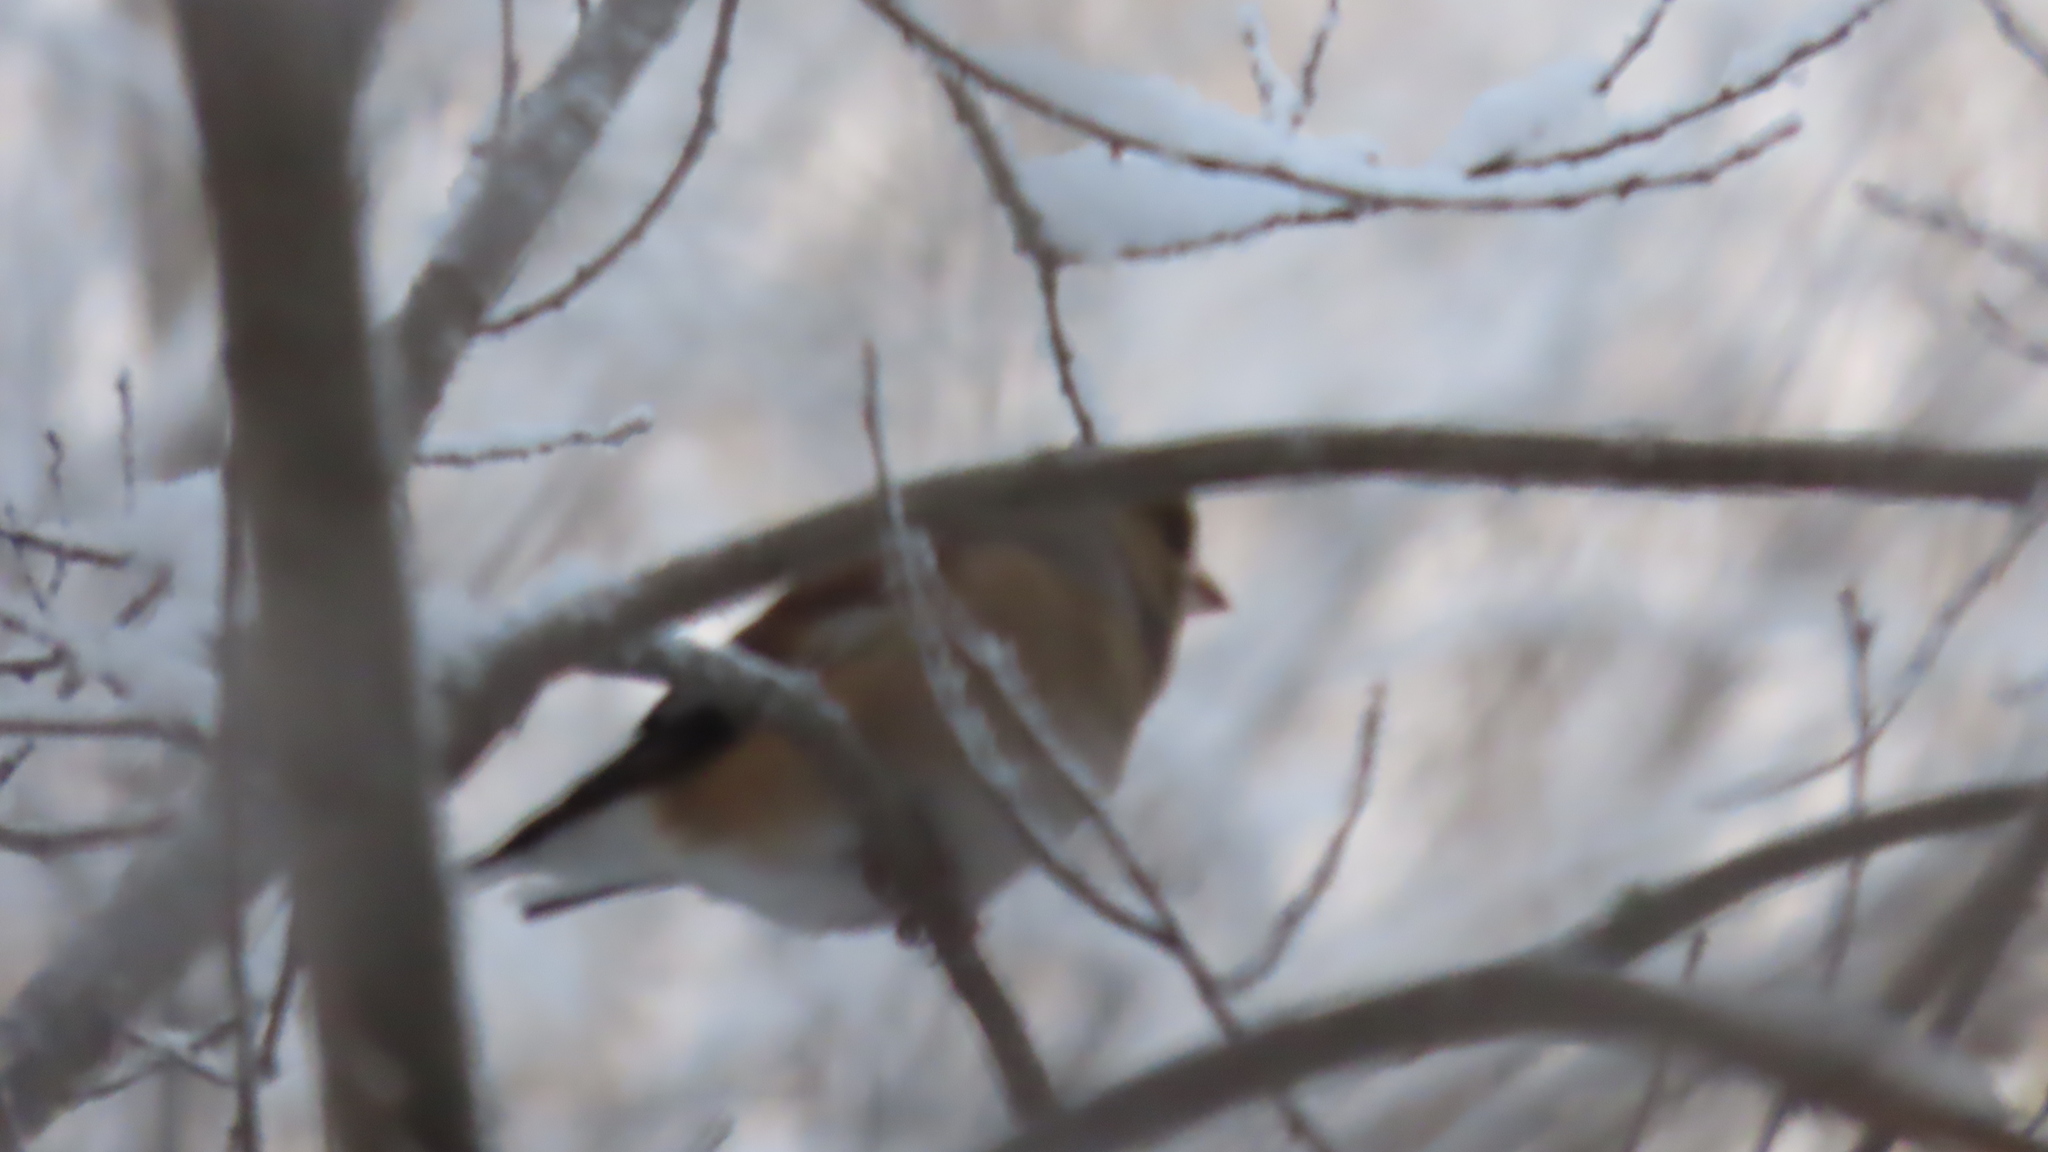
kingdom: Animalia
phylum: Chordata
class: Aves
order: Passeriformes
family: Fringillidae
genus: Coccothraustes
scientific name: Coccothraustes coccothraustes
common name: Hawfinch
